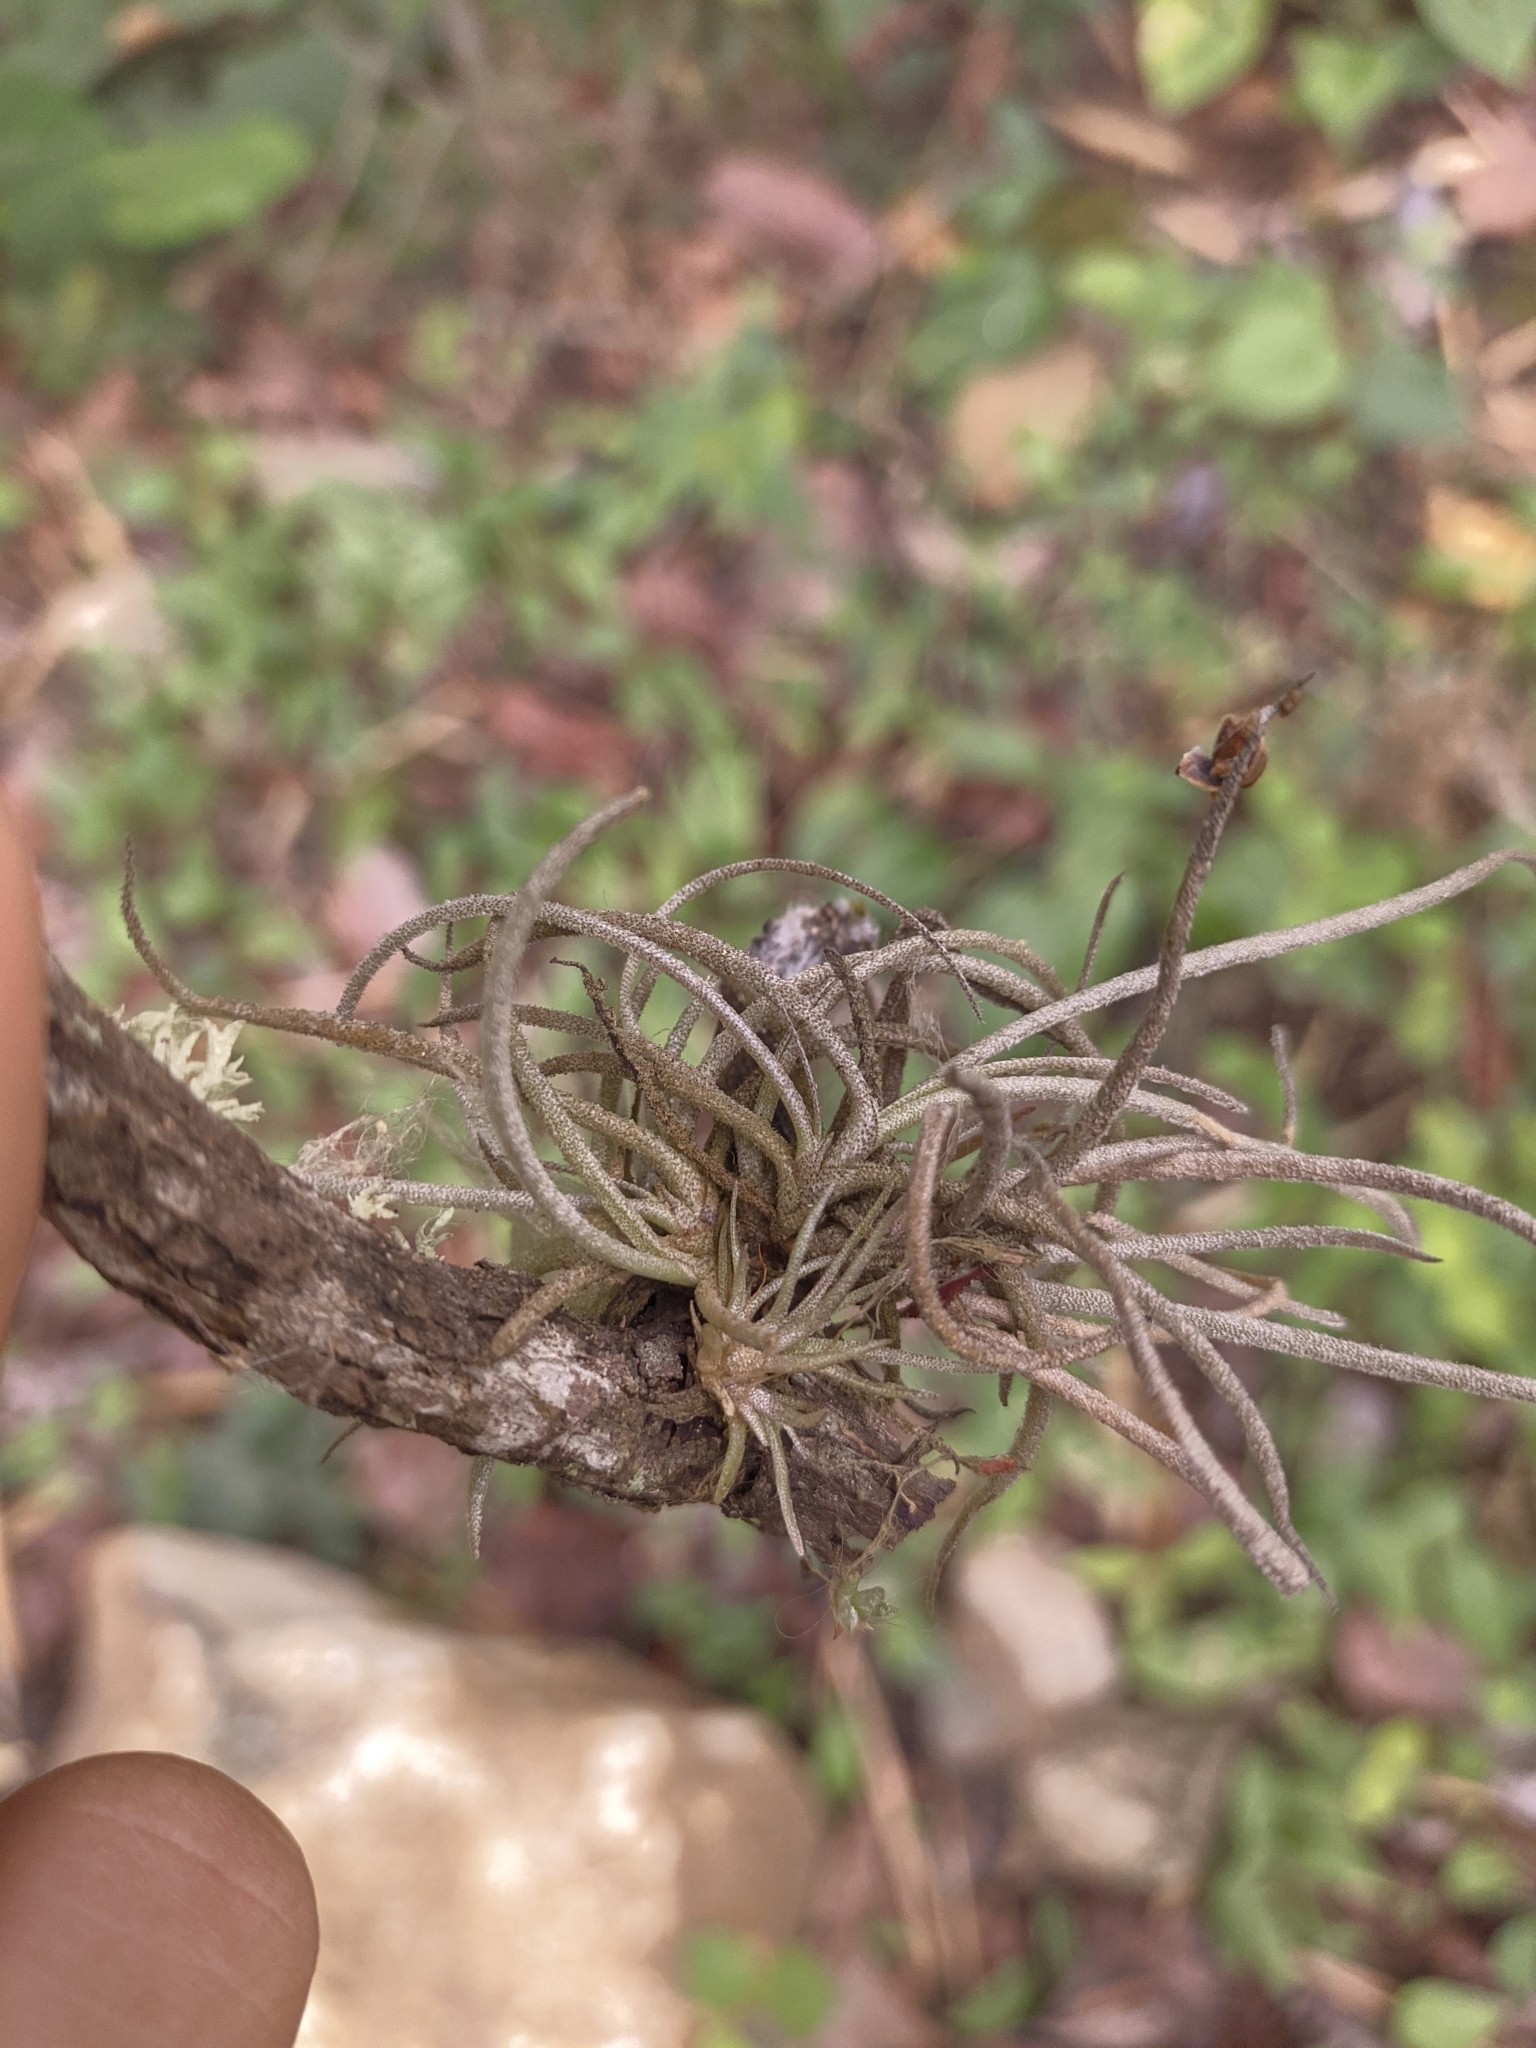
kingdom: Plantae
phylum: Tracheophyta
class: Liliopsida
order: Poales
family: Bromeliaceae
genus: Tillandsia
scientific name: Tillandsia recurvata
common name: Small ballmoss
